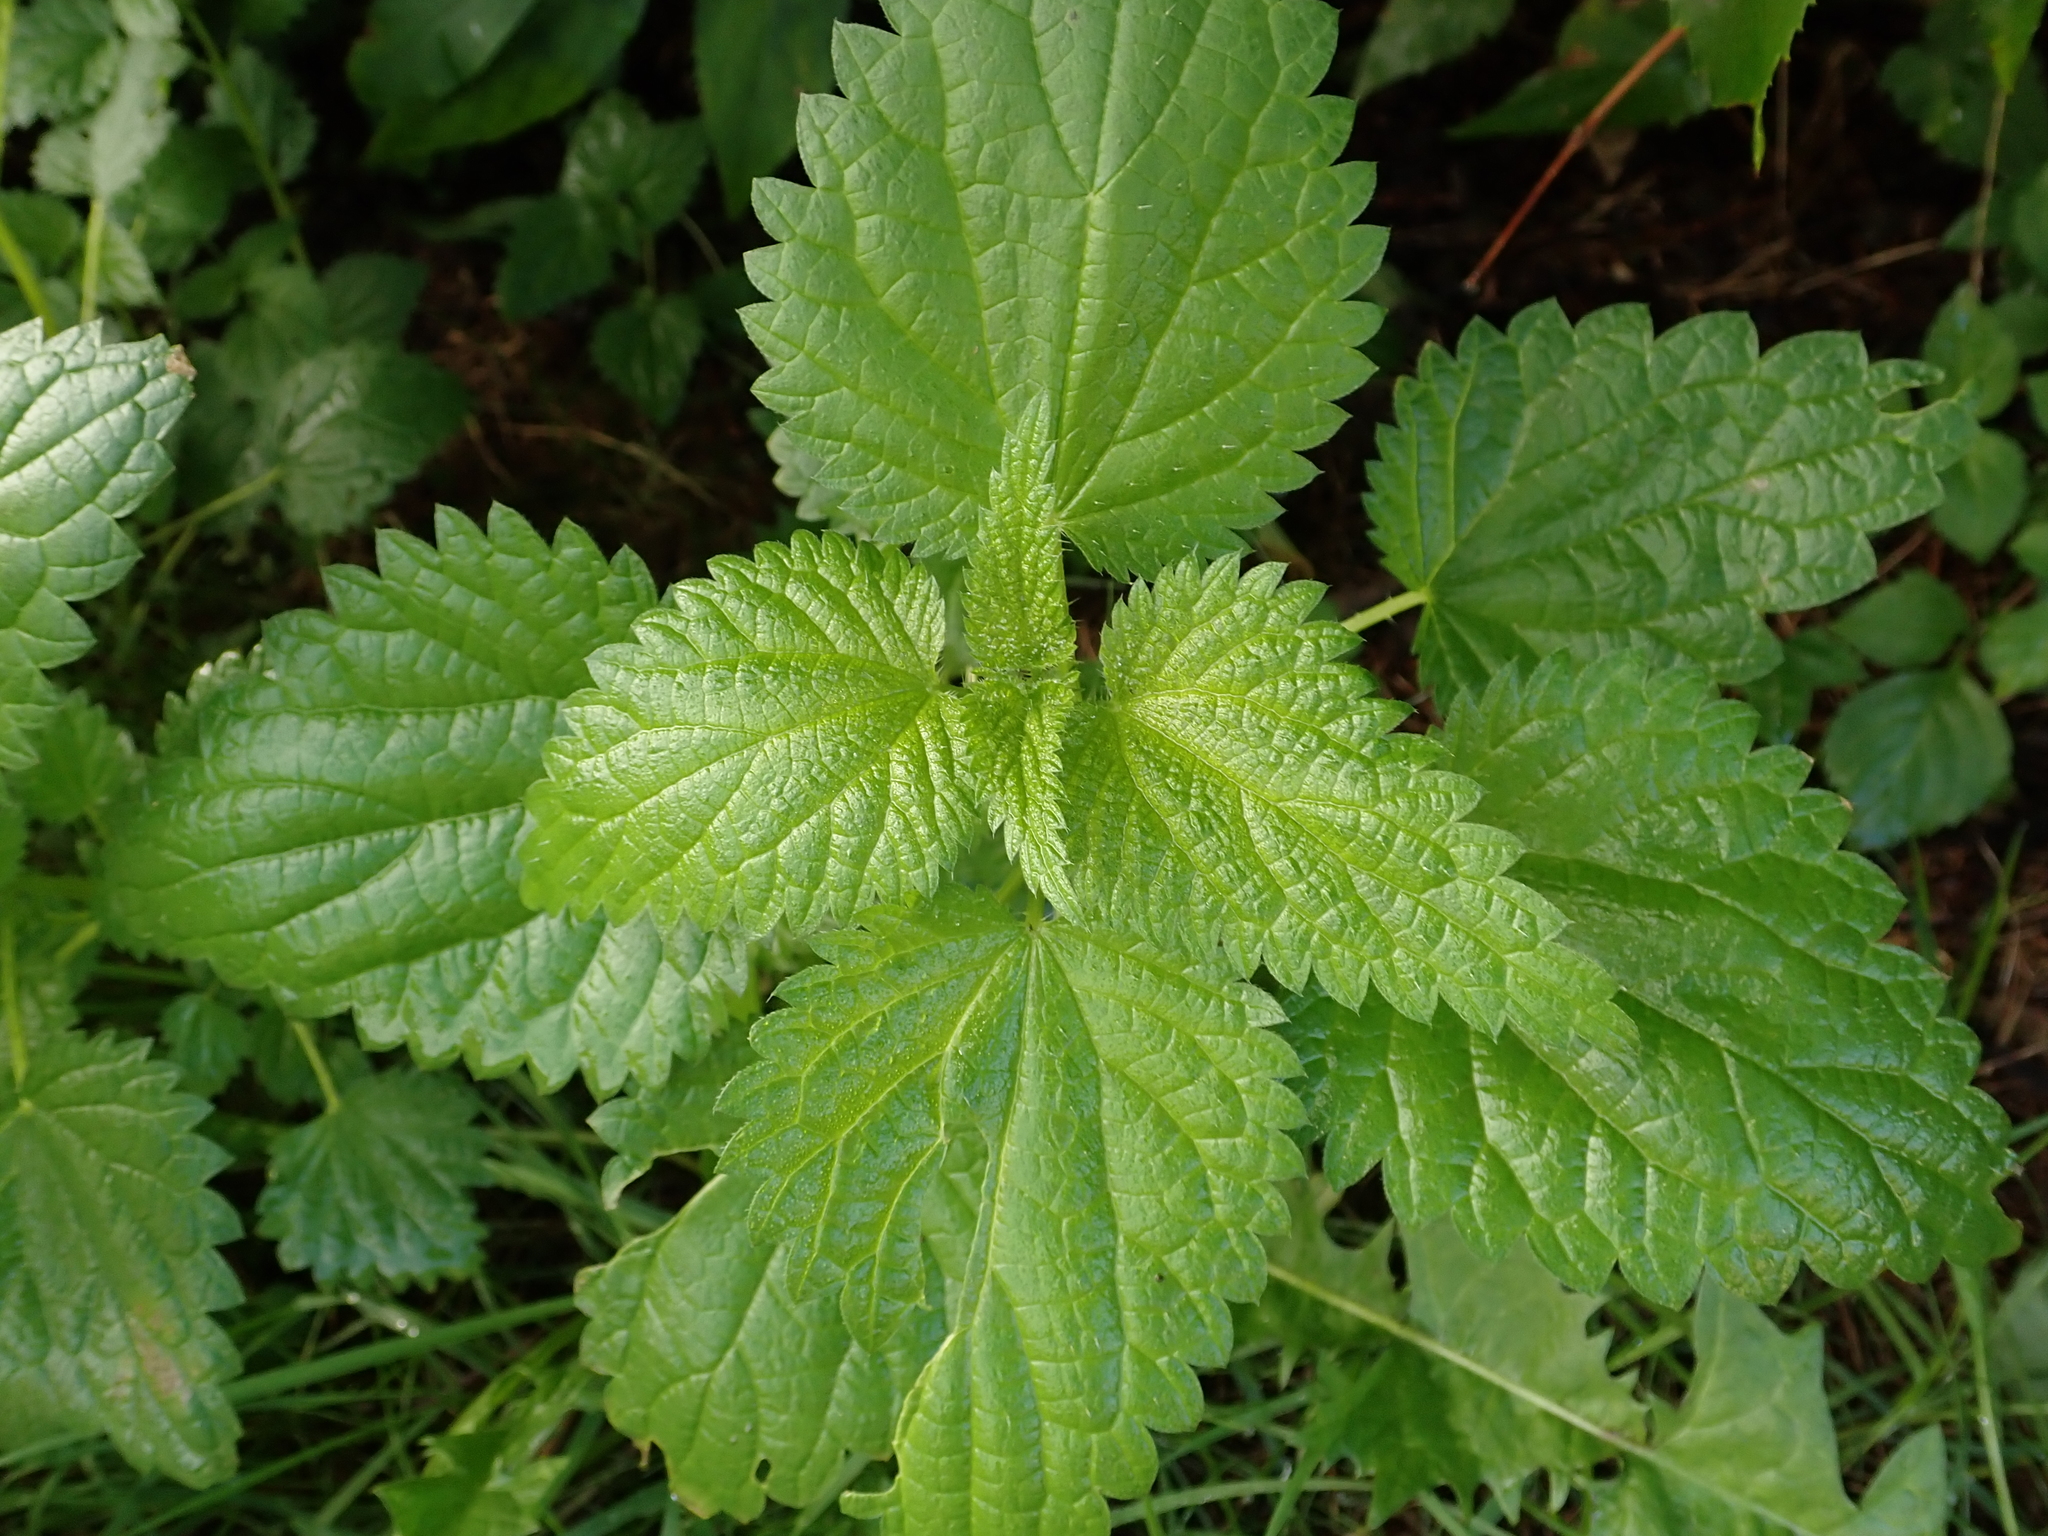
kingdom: Plantae
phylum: Tracheophyta
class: Magnoliopsida
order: Rosales
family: Urticaceae
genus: Urtica
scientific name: Urtica dioica
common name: Common nettle
